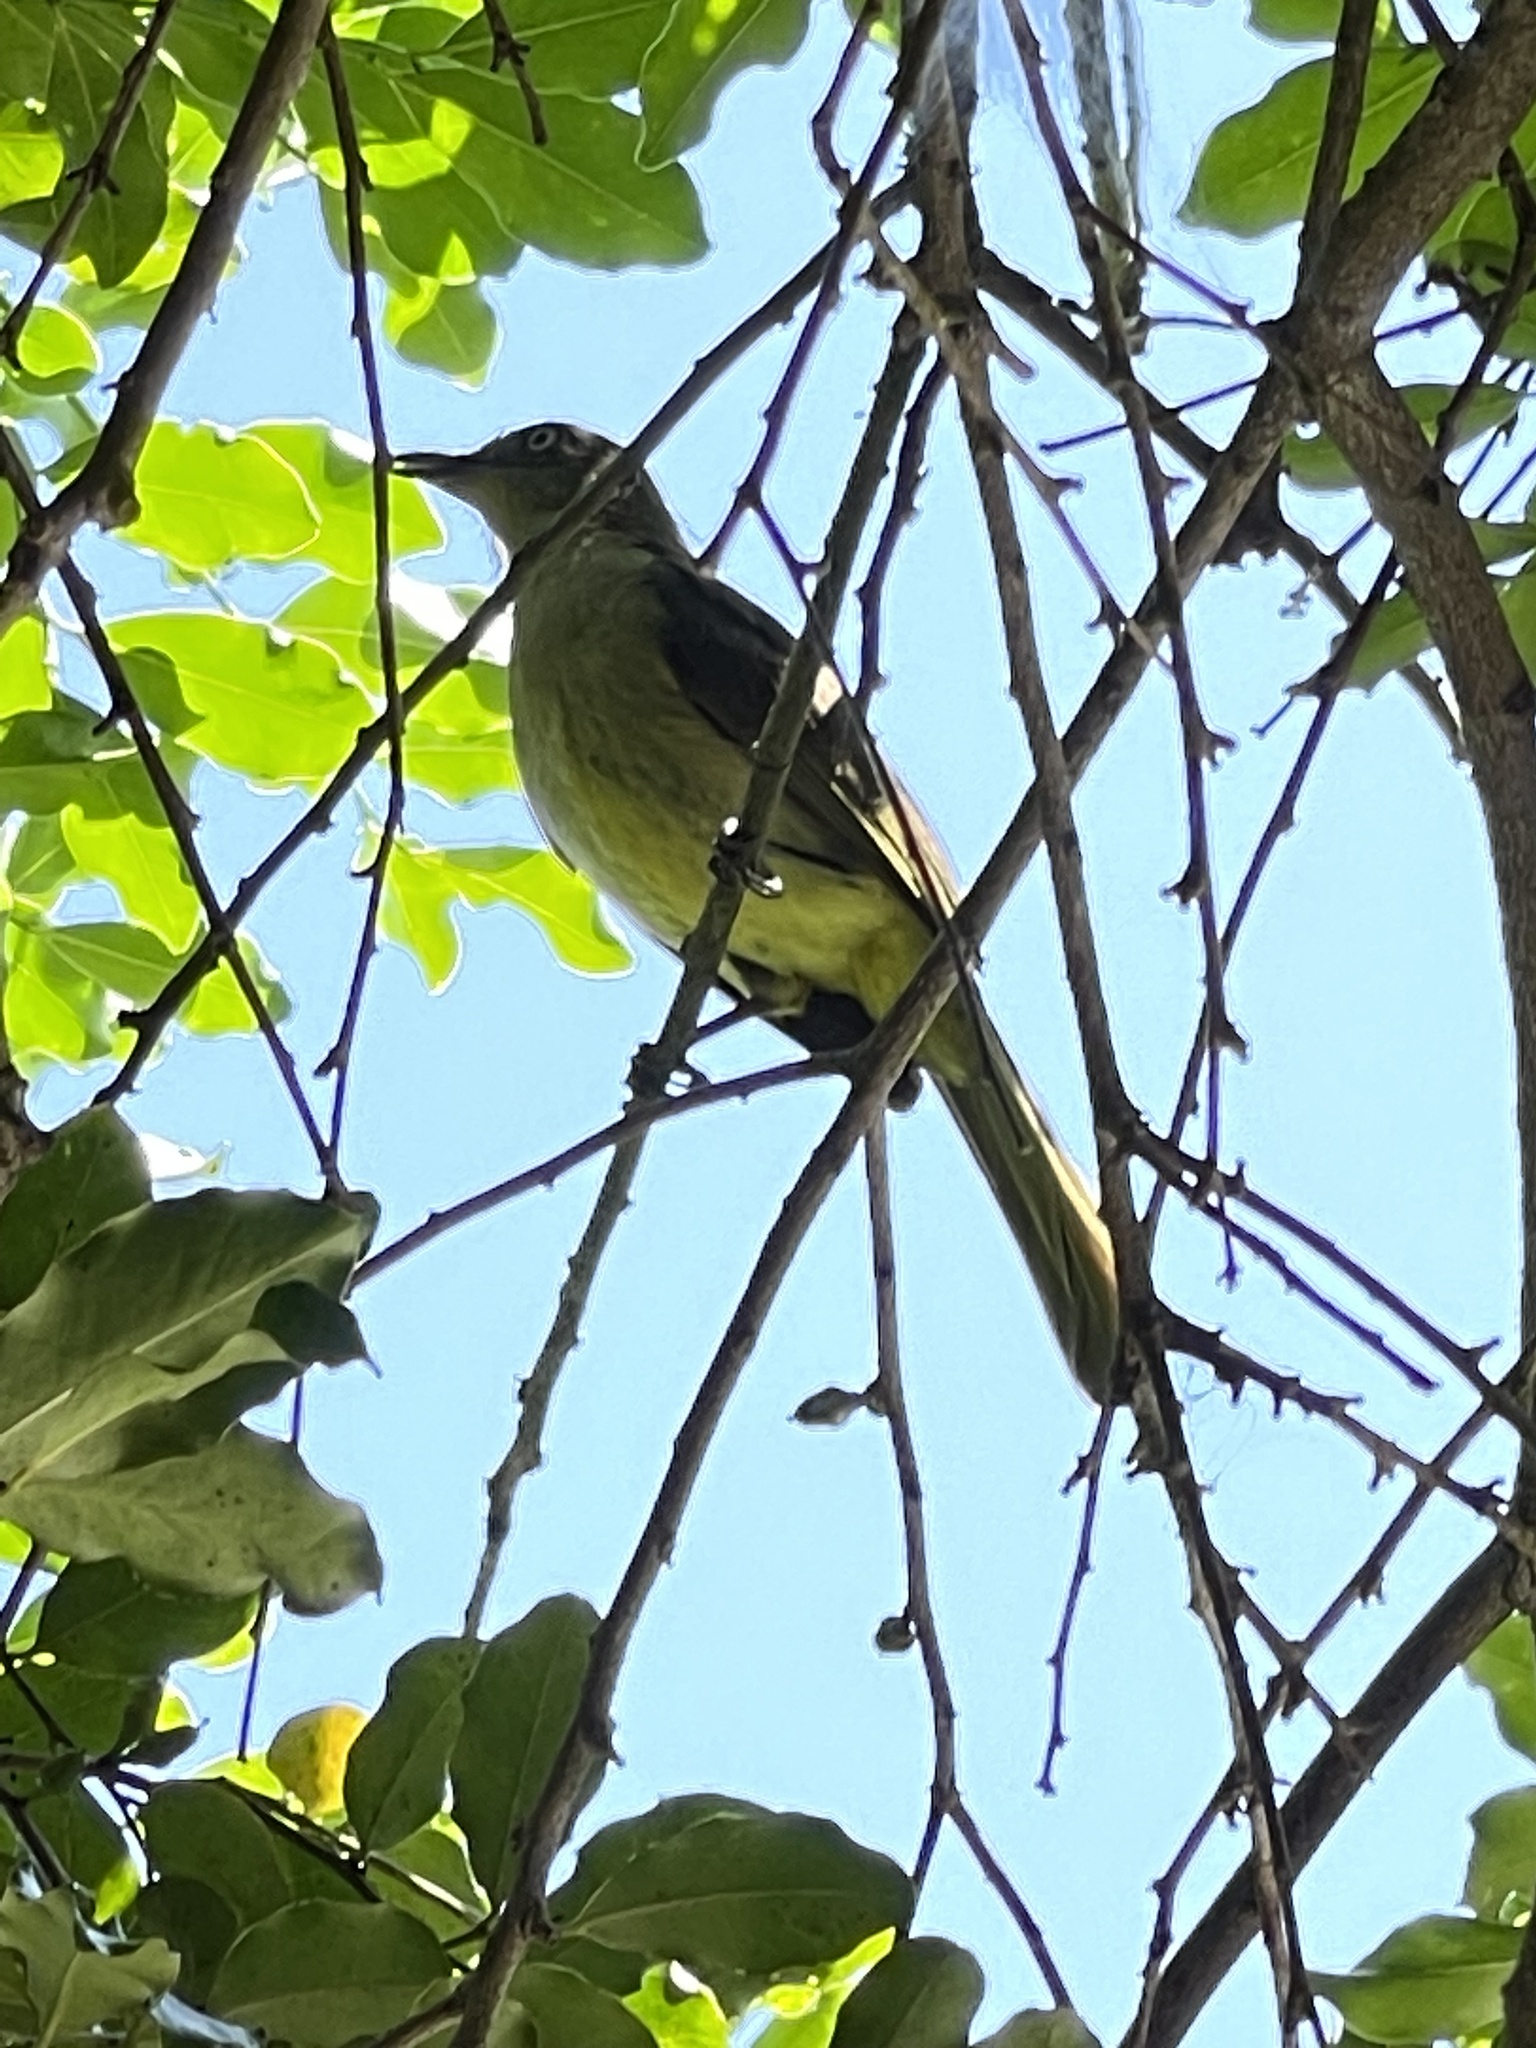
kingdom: Animalia
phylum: Chordata
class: Aves
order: Passeriformes
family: Pycnonotidae
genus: Andropadus
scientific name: Andropadus importunus
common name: Sombre greenbul
